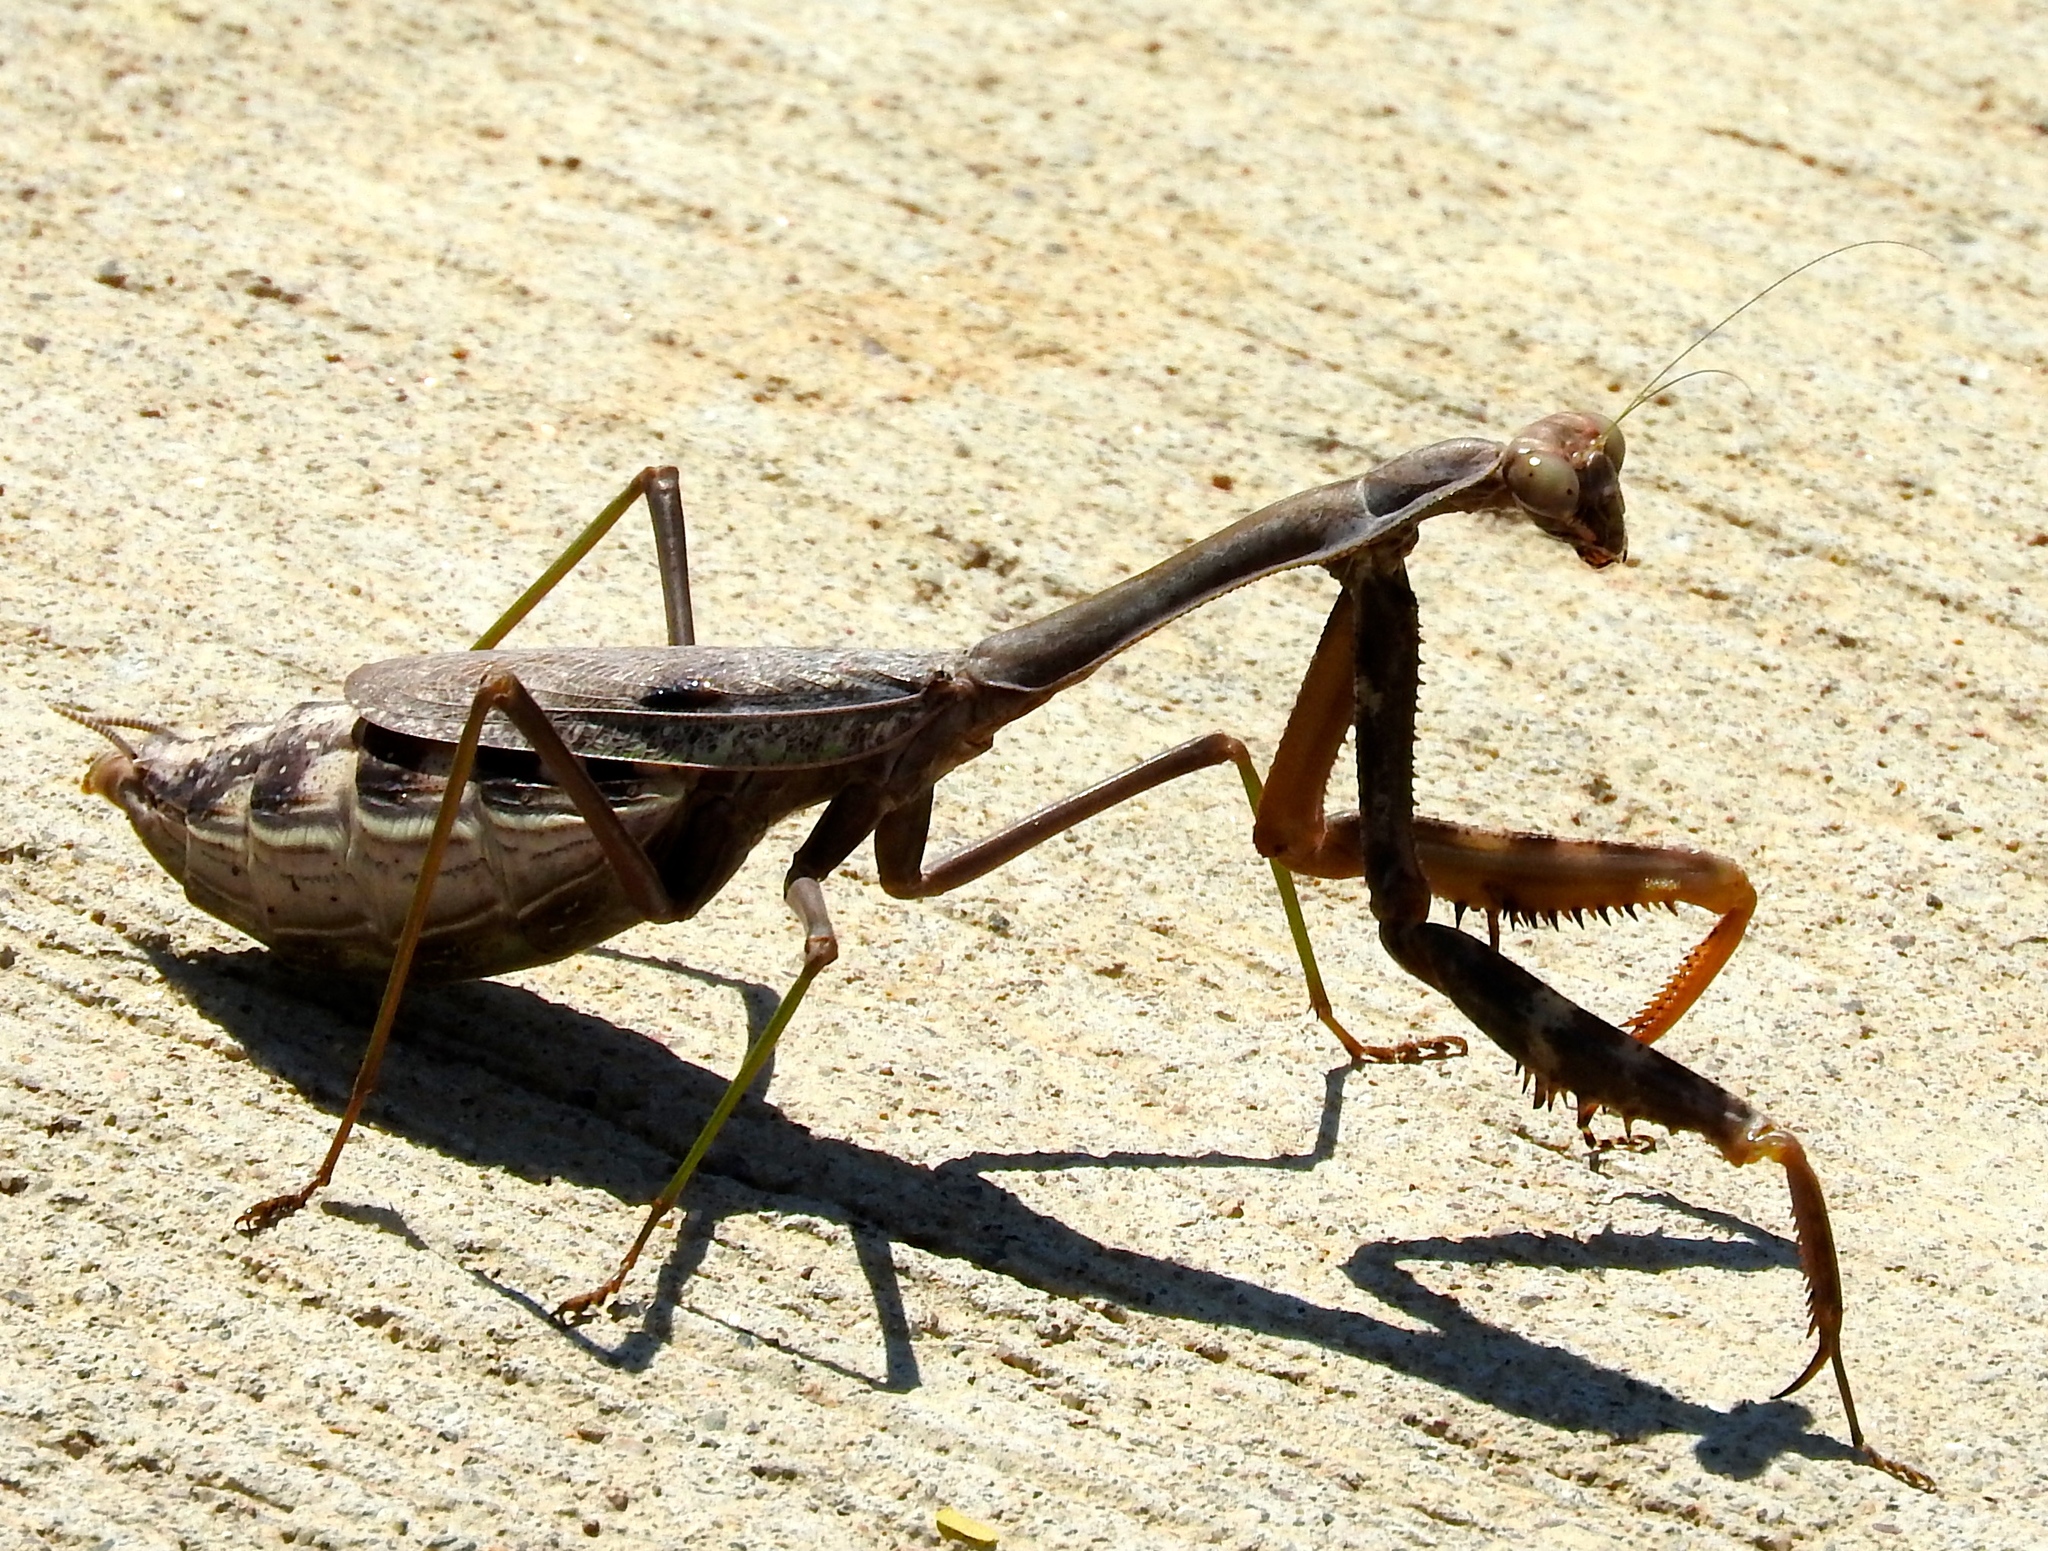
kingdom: Animalia
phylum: Arthropoda
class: Insecta
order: Mantodea
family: Mantidae
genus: Stagmomantis
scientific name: Stagmomantis colorata
